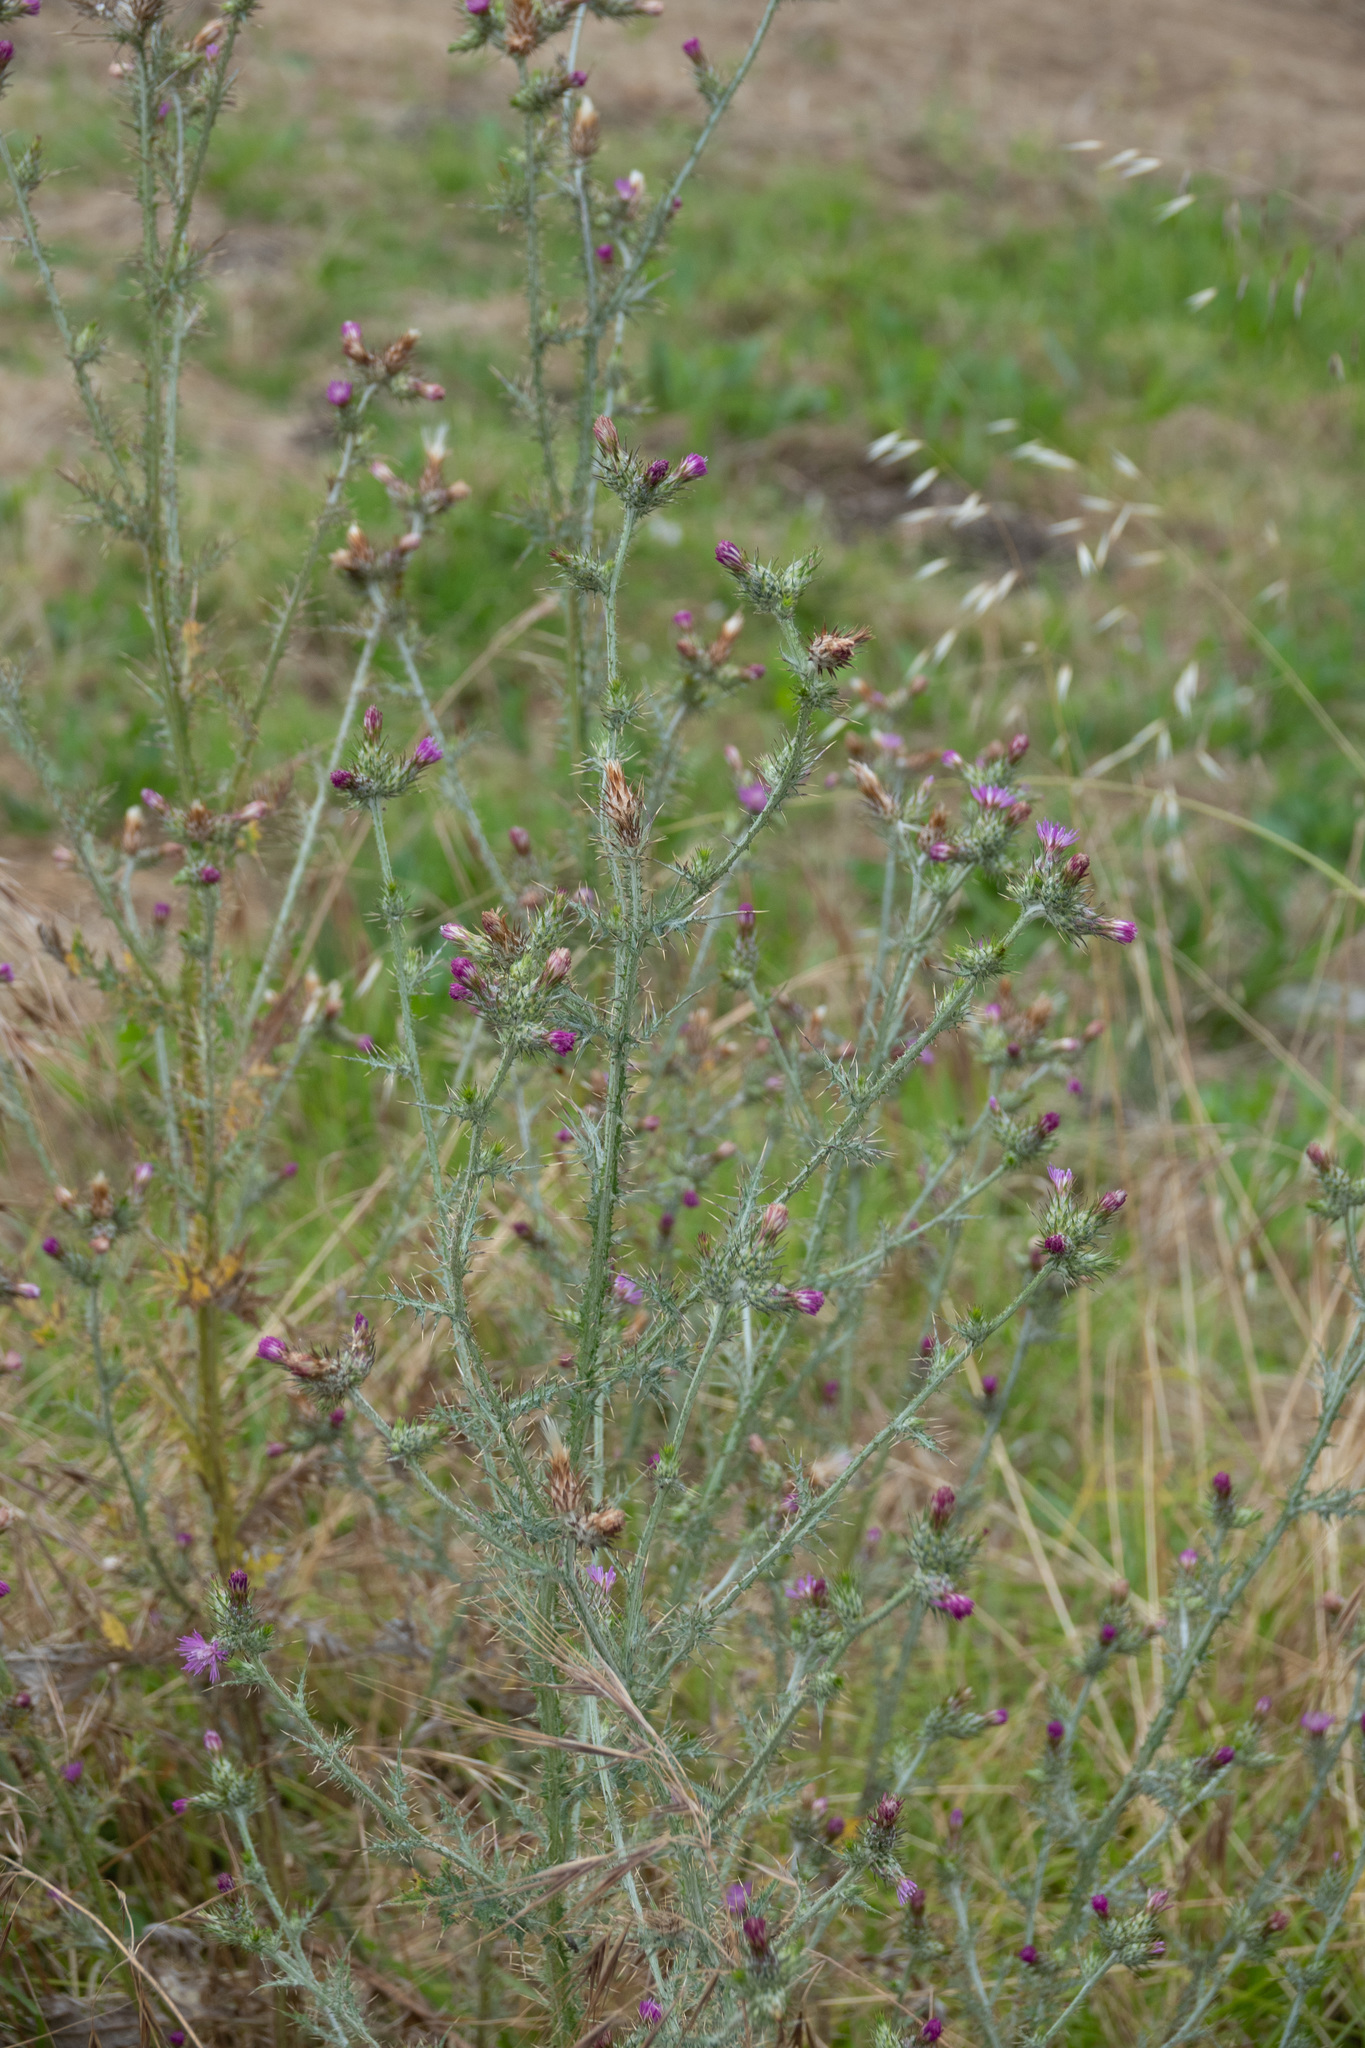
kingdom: Plantae
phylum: Tracheophyta
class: Magnoliopsida
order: Asterales
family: Asteraceae
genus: Carduus
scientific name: Carduus pycnocephalus
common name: Plymouth thistle
